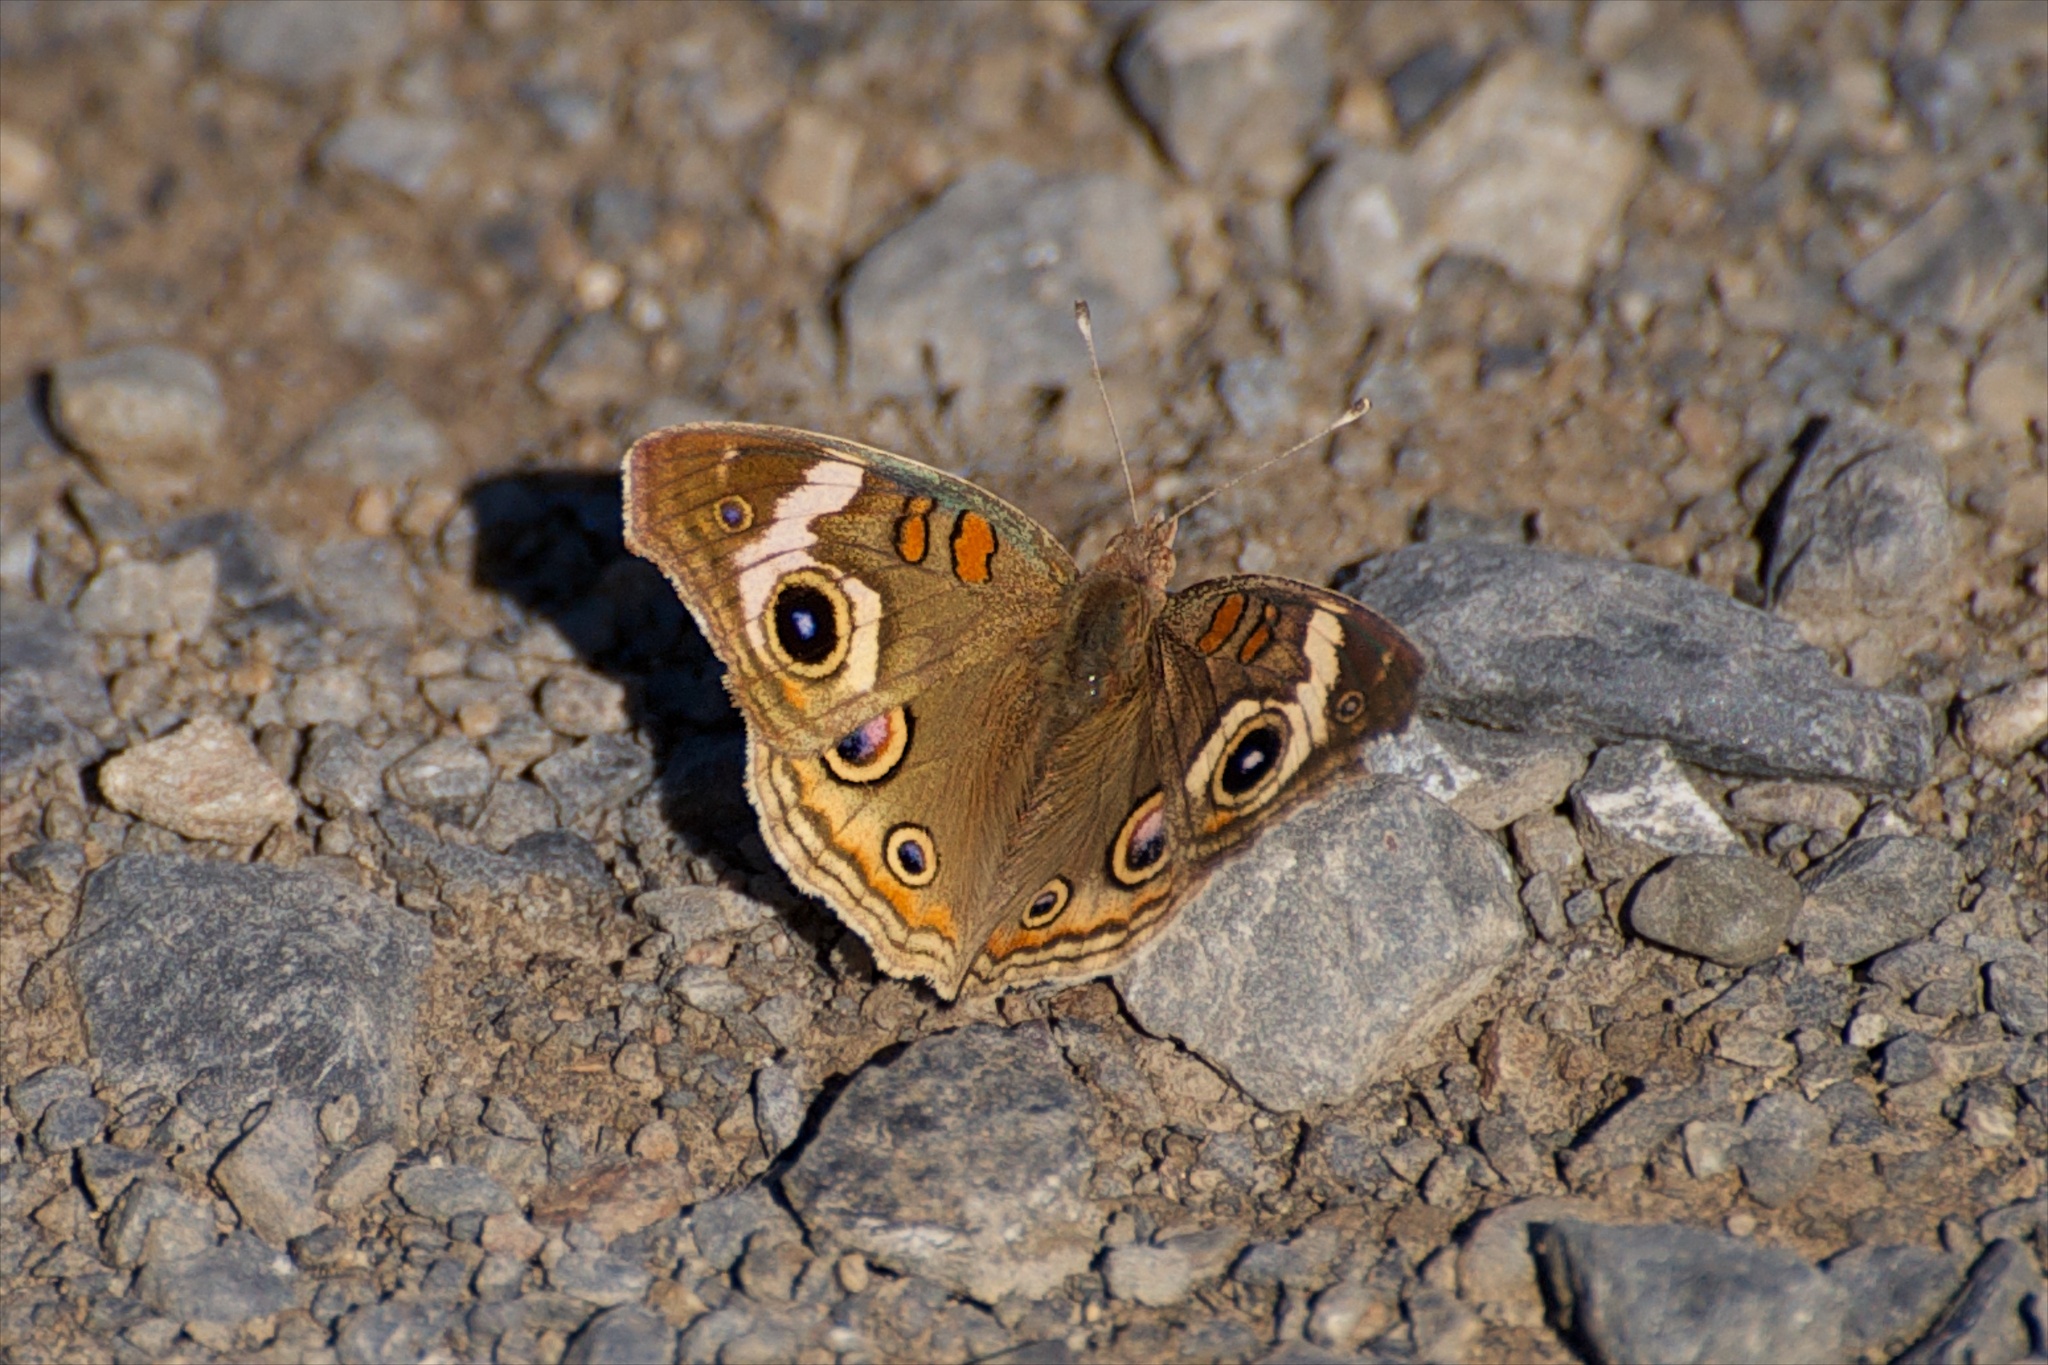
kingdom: Animalia
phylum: Arthropoda
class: Insecta
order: Lepidoptera
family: Nymphalidae
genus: Junonia
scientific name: Junonia grisea
